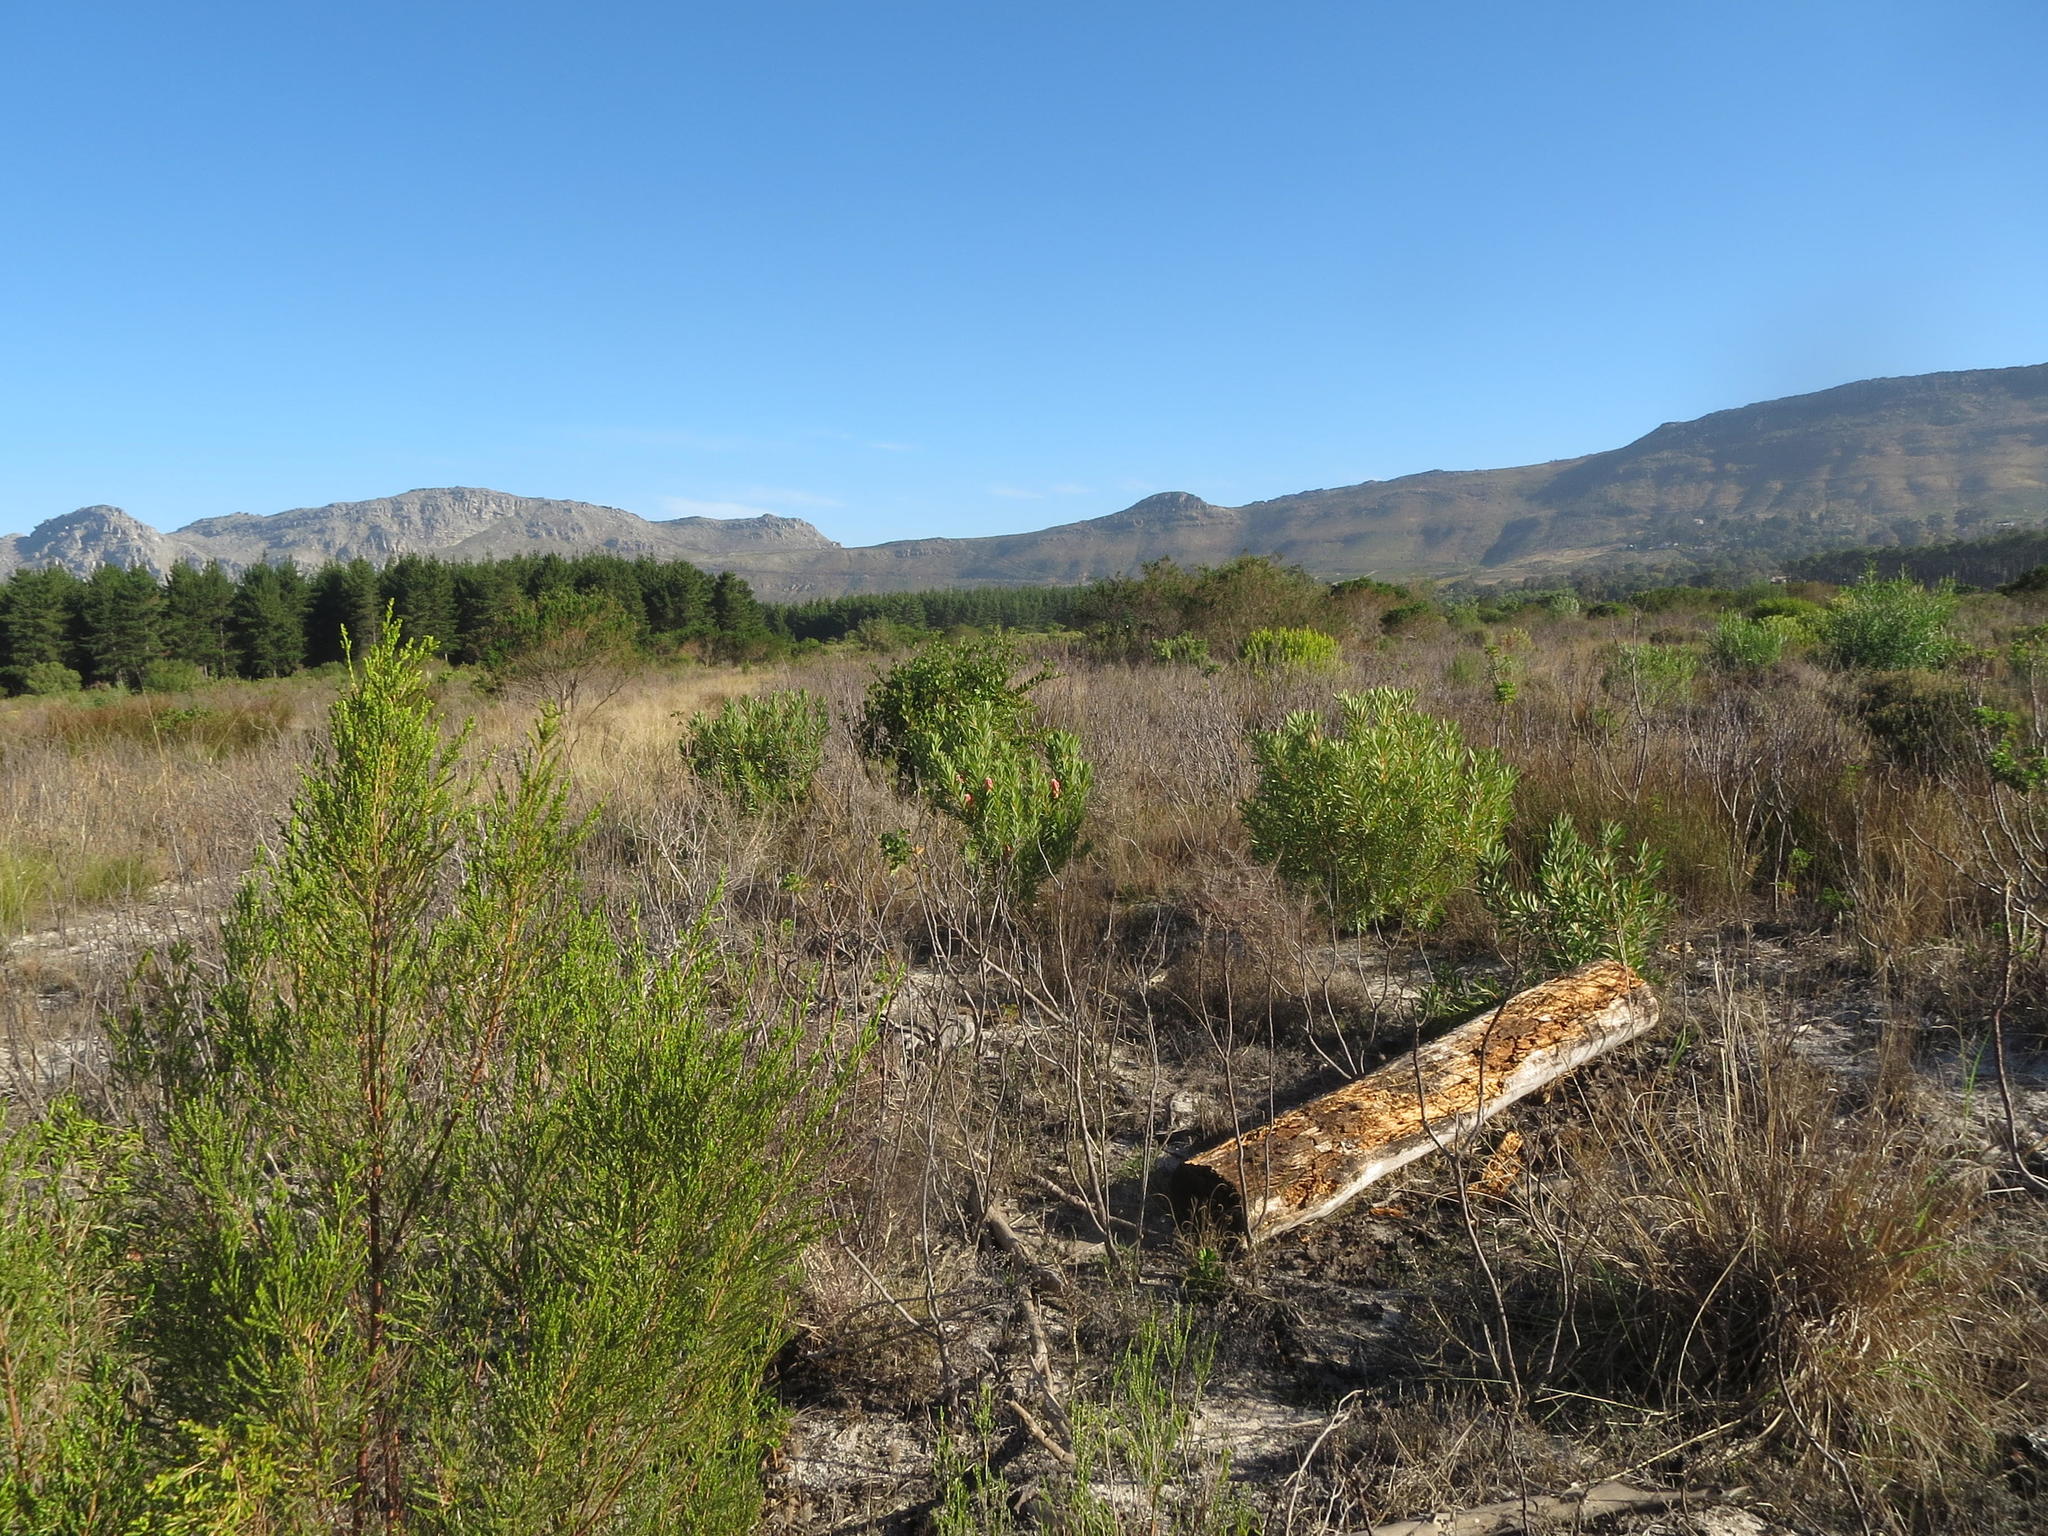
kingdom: Plantae
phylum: Tracheophyta
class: Magnoliopsida
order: Proteales
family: Proteaceae
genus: Protea
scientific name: Protea repens
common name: Sugarbush
